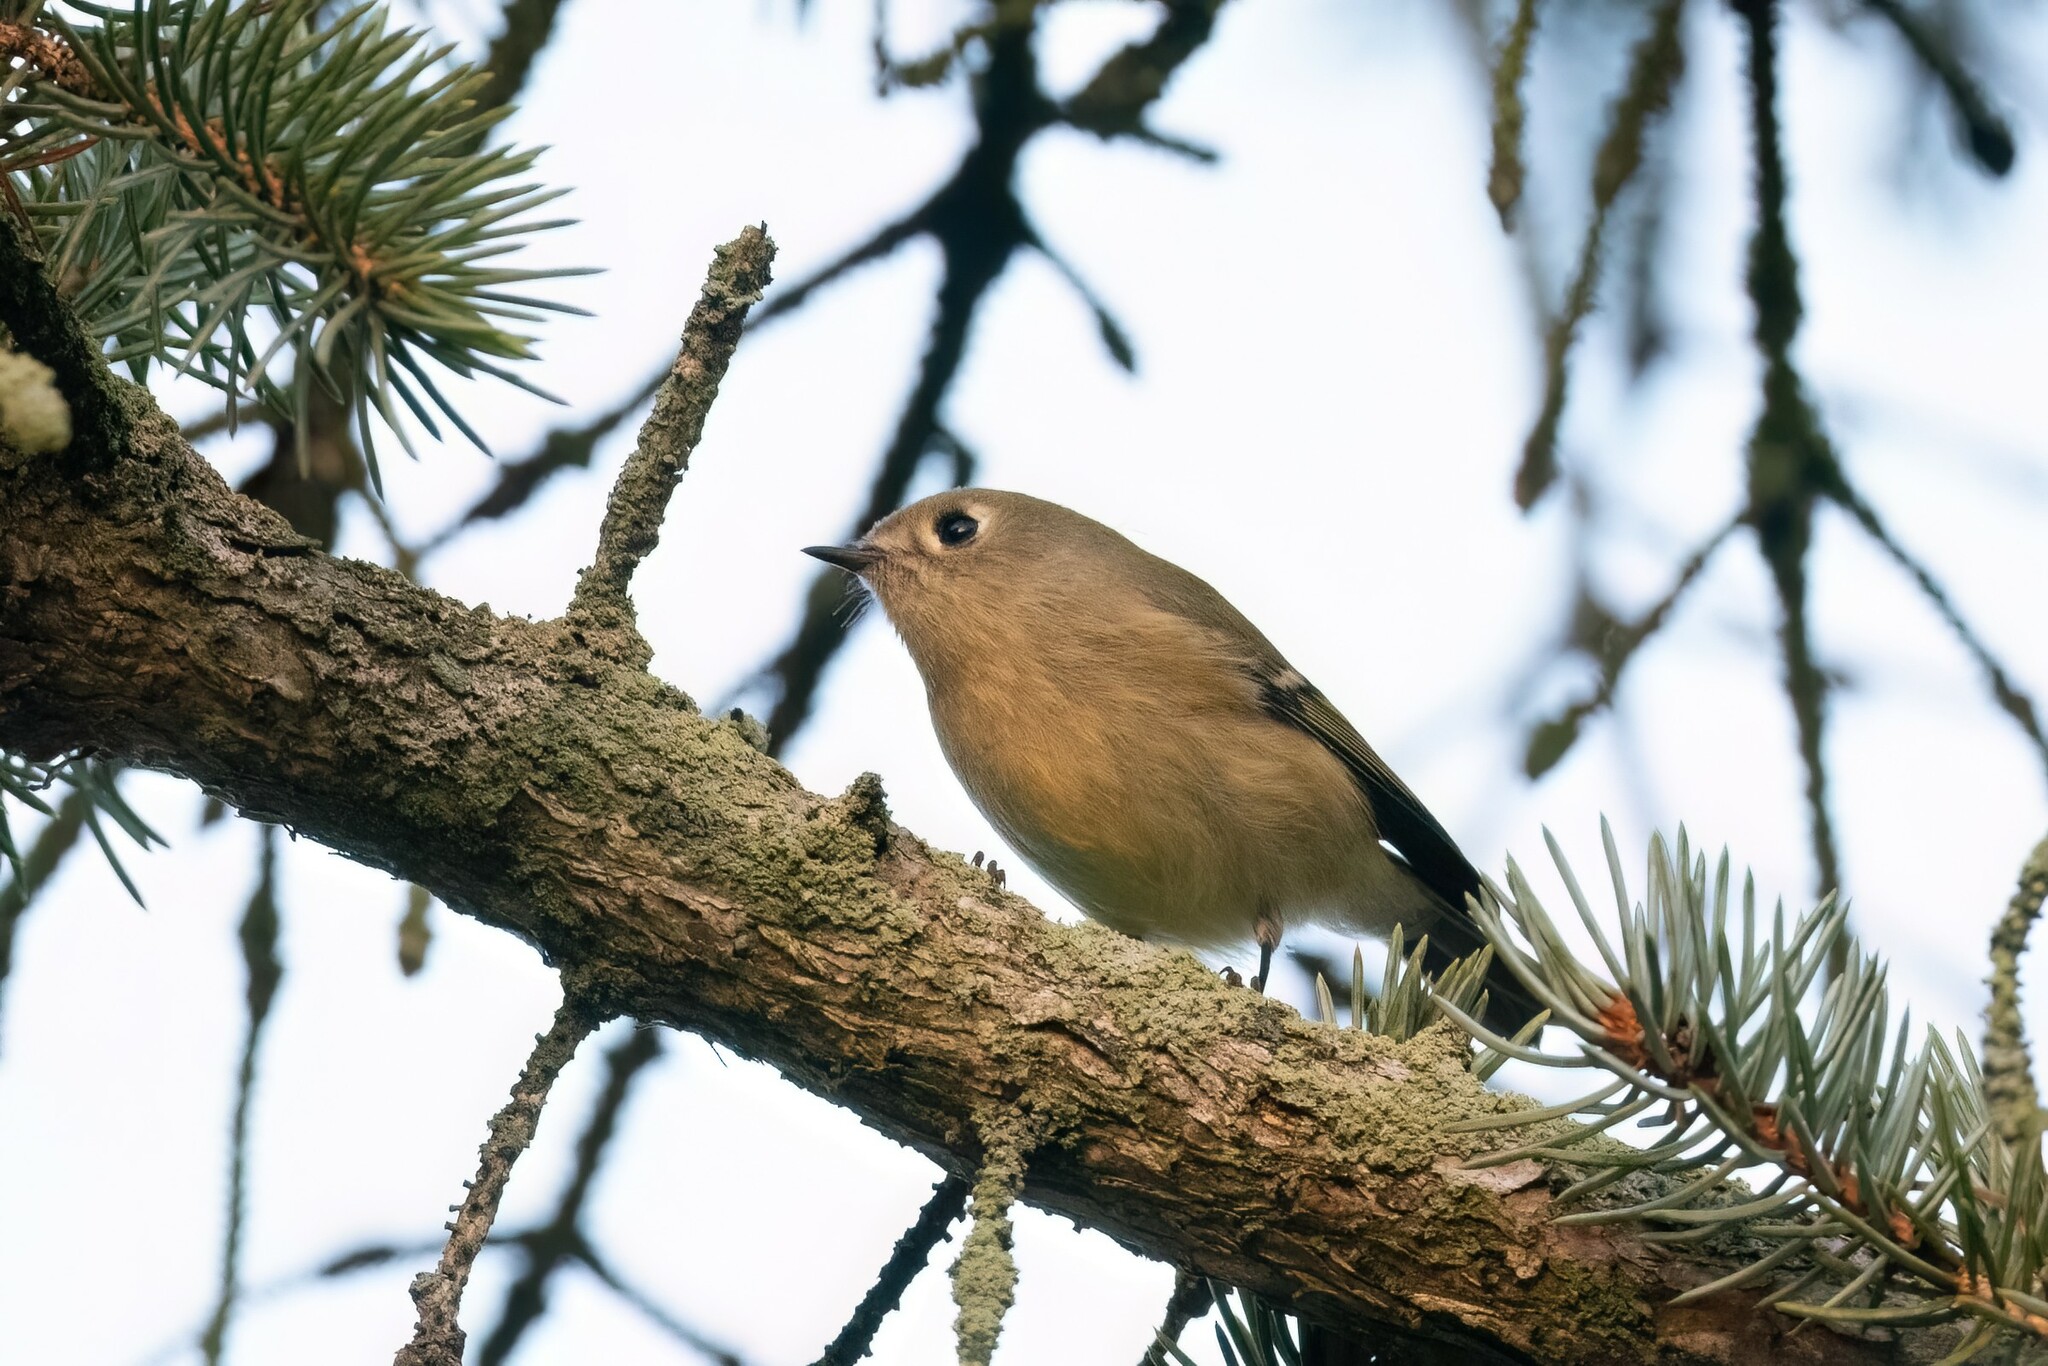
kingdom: Animalia
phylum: Chordata
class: Aves
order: Passeriformes
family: Regulidae
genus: Regulus
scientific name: Regulus calendula
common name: Ruby-crowned kinglet
